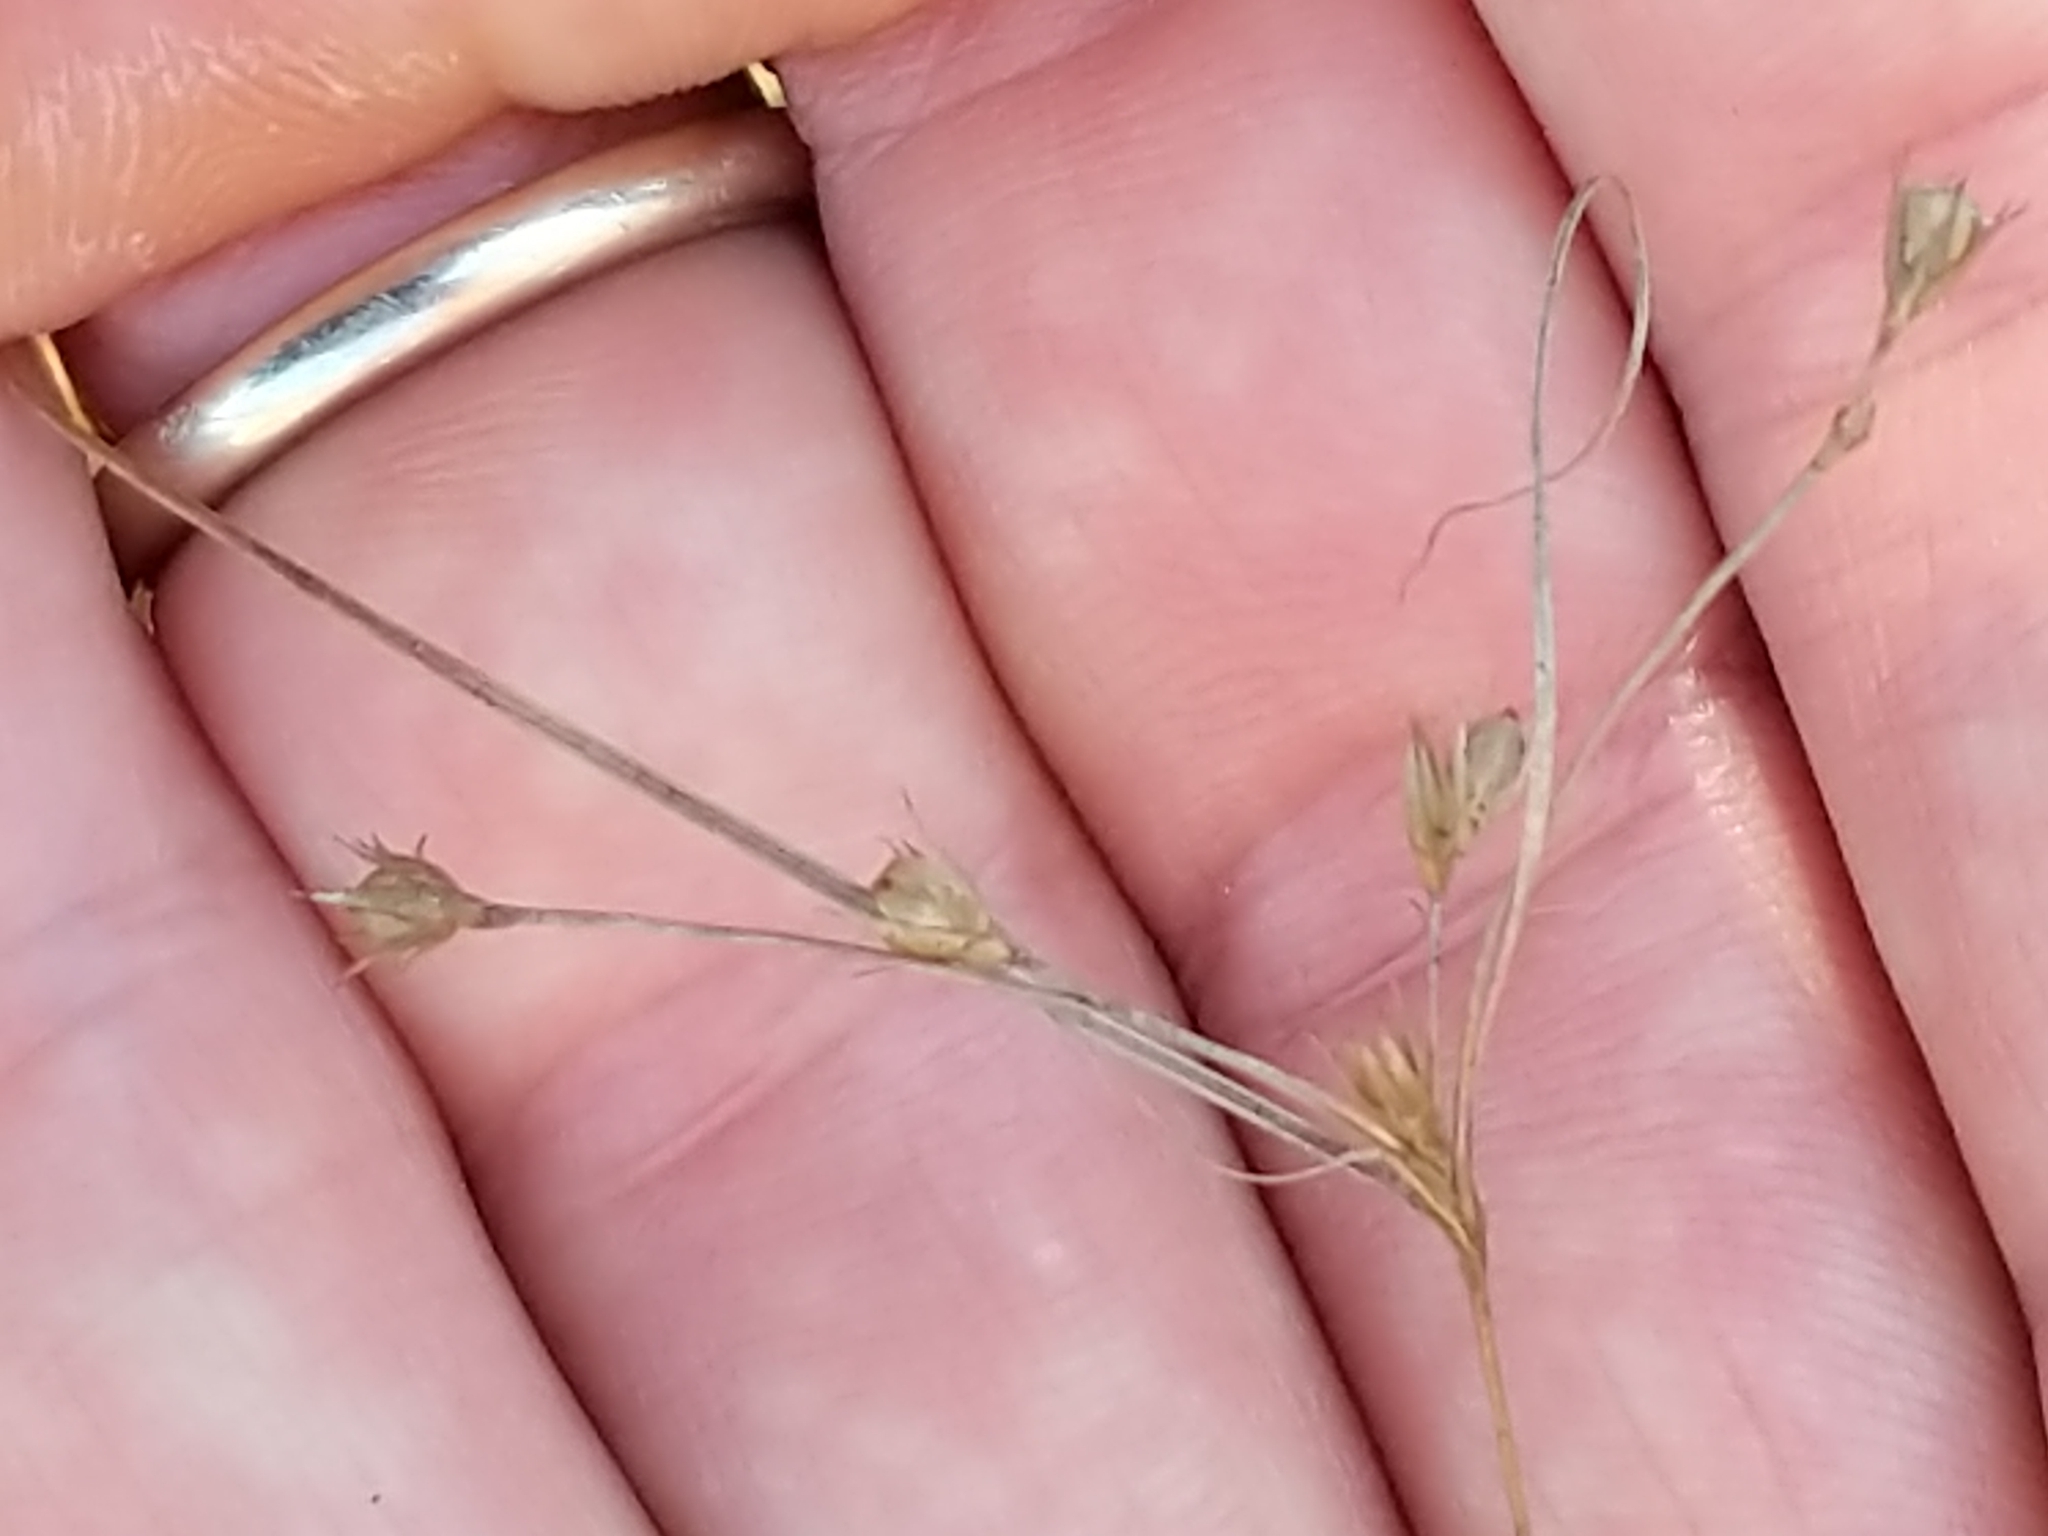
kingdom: Plantae
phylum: Tracheophyta
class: Liliopsida
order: Poales
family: Juncaceae
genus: Juncus
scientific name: Juncus tenuis
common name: Slender rush
